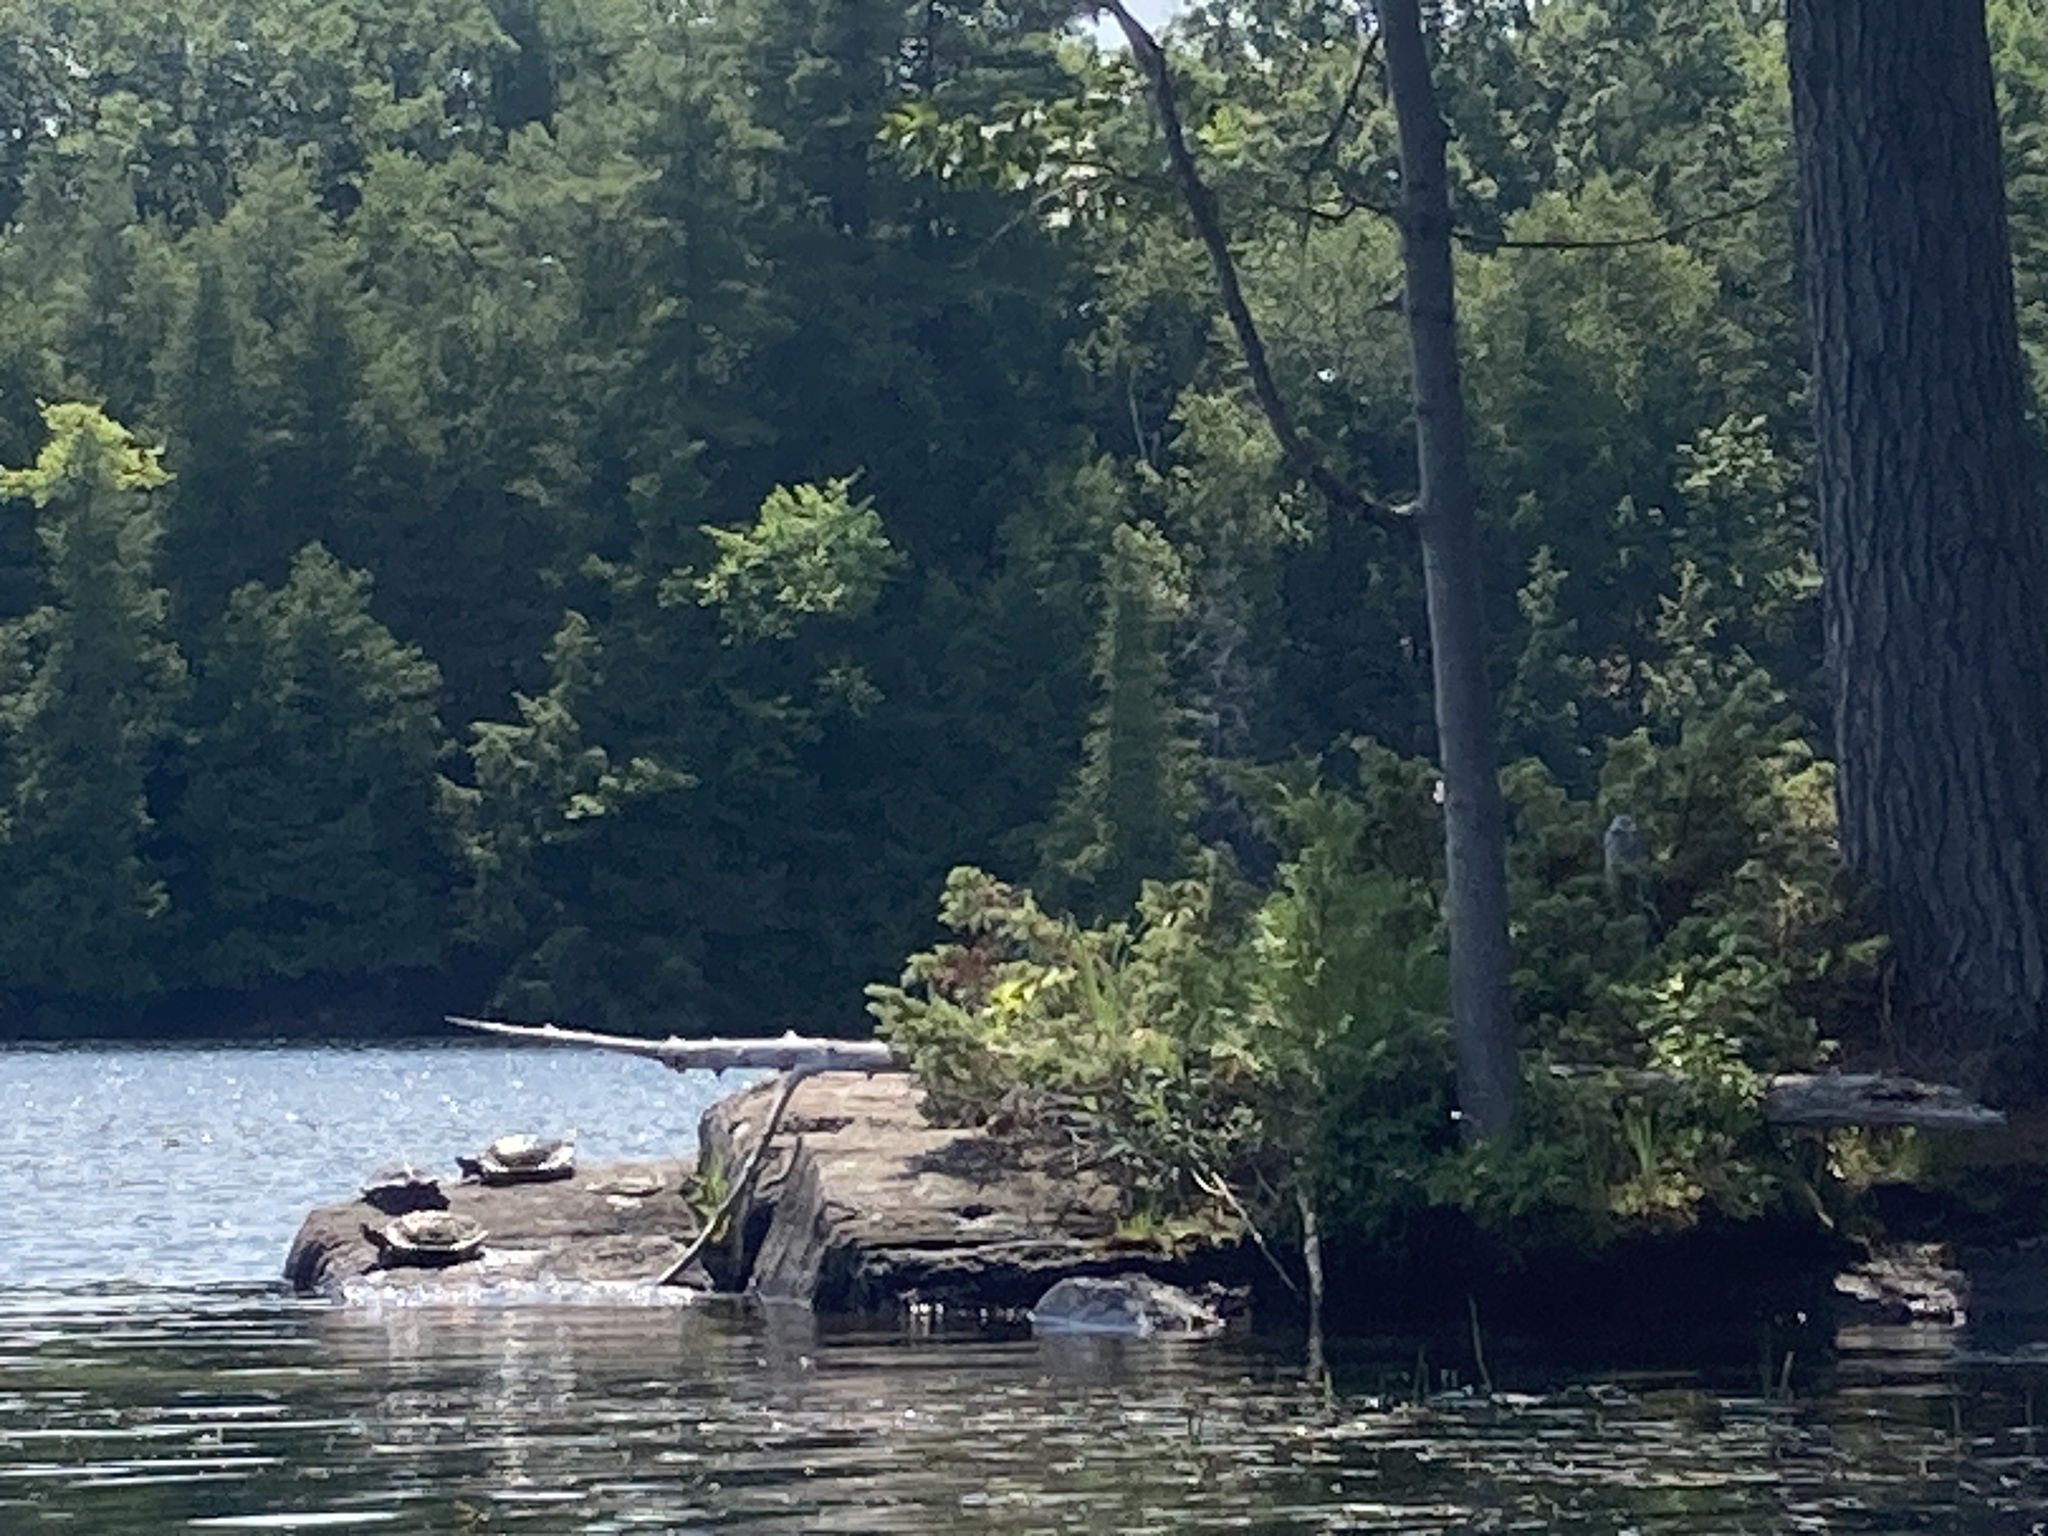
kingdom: Animalia
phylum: Chordata
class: Testudines
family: Emydidae
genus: Graptemys
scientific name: Graptemys geographica
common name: Common map turtle
